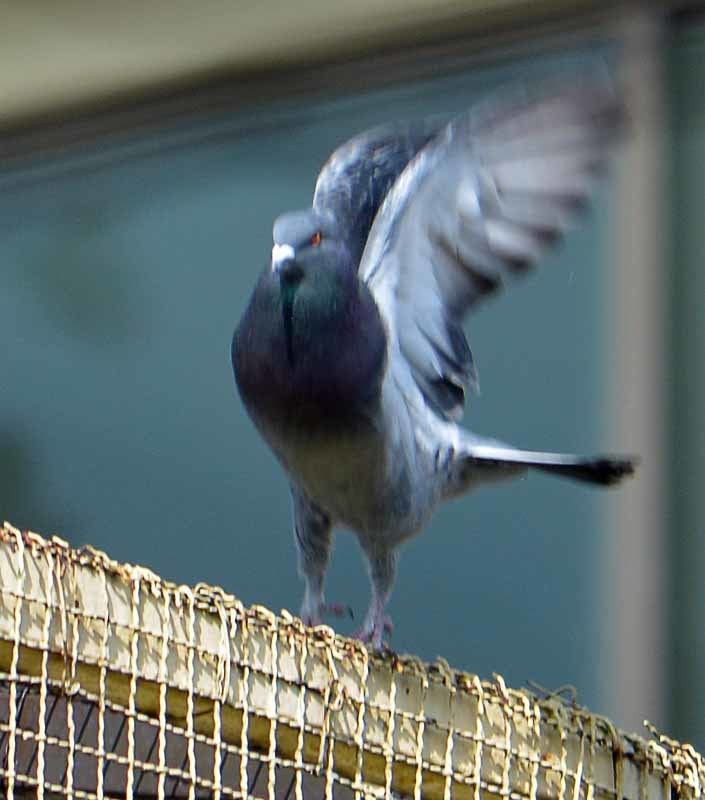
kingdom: Animalia
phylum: Chordata
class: Aves
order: Columbiformes
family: Columbidae
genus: Columba
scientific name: Columba livia
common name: Rock pigeon
